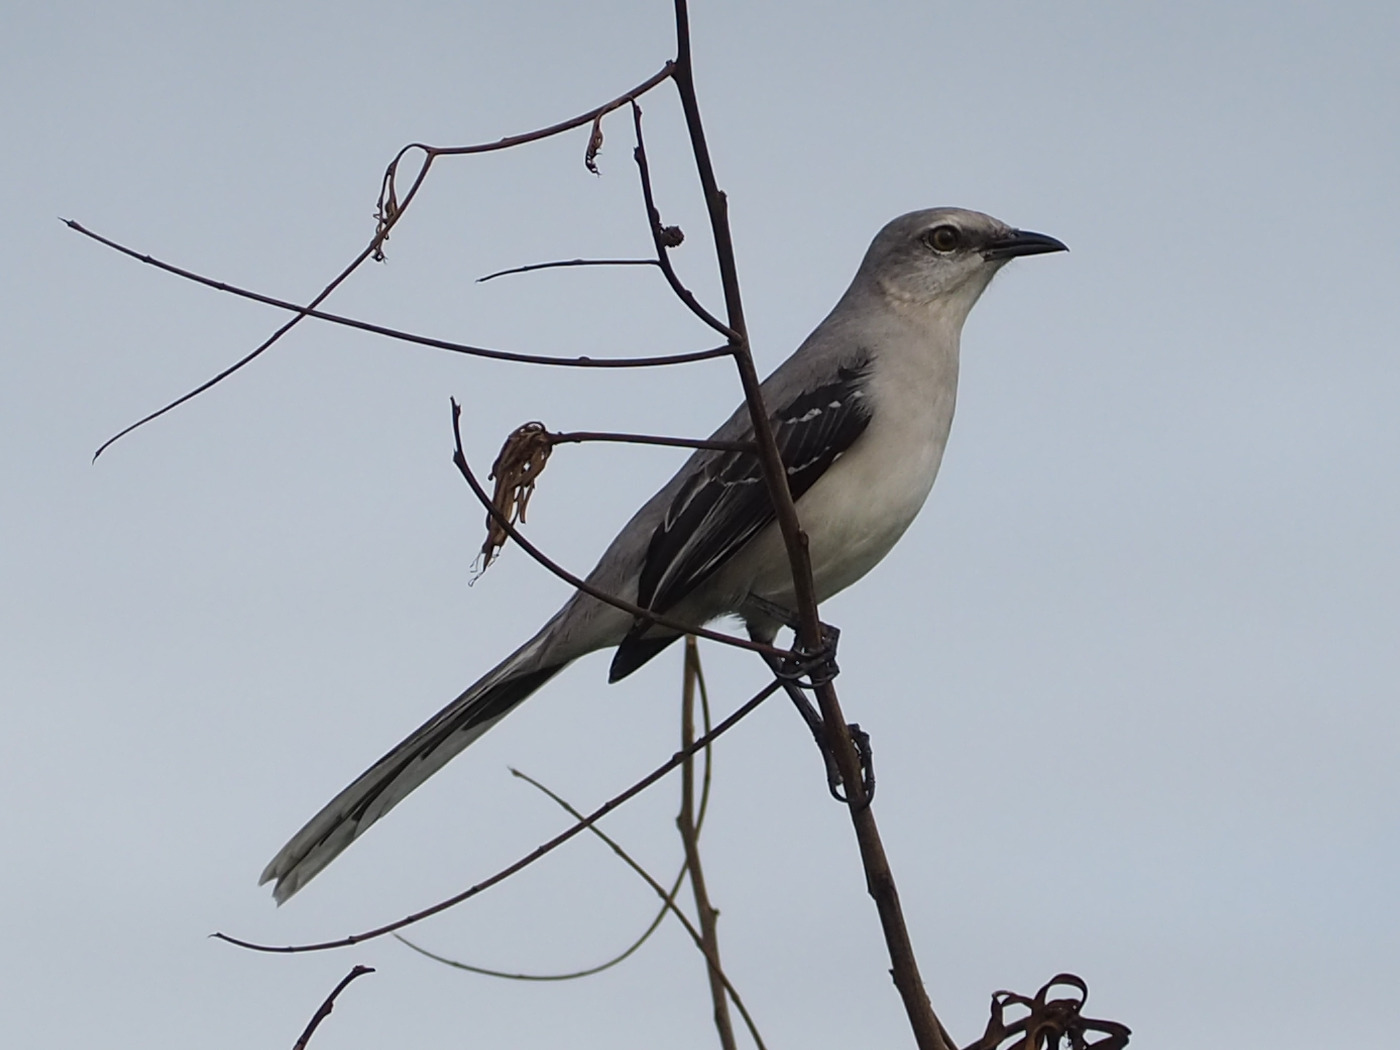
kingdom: Animalia
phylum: Chordata
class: Aves
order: Passeriformes
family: Mimidae
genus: Mimus
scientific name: Mimus gilvus
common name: Tropical mockingbird
